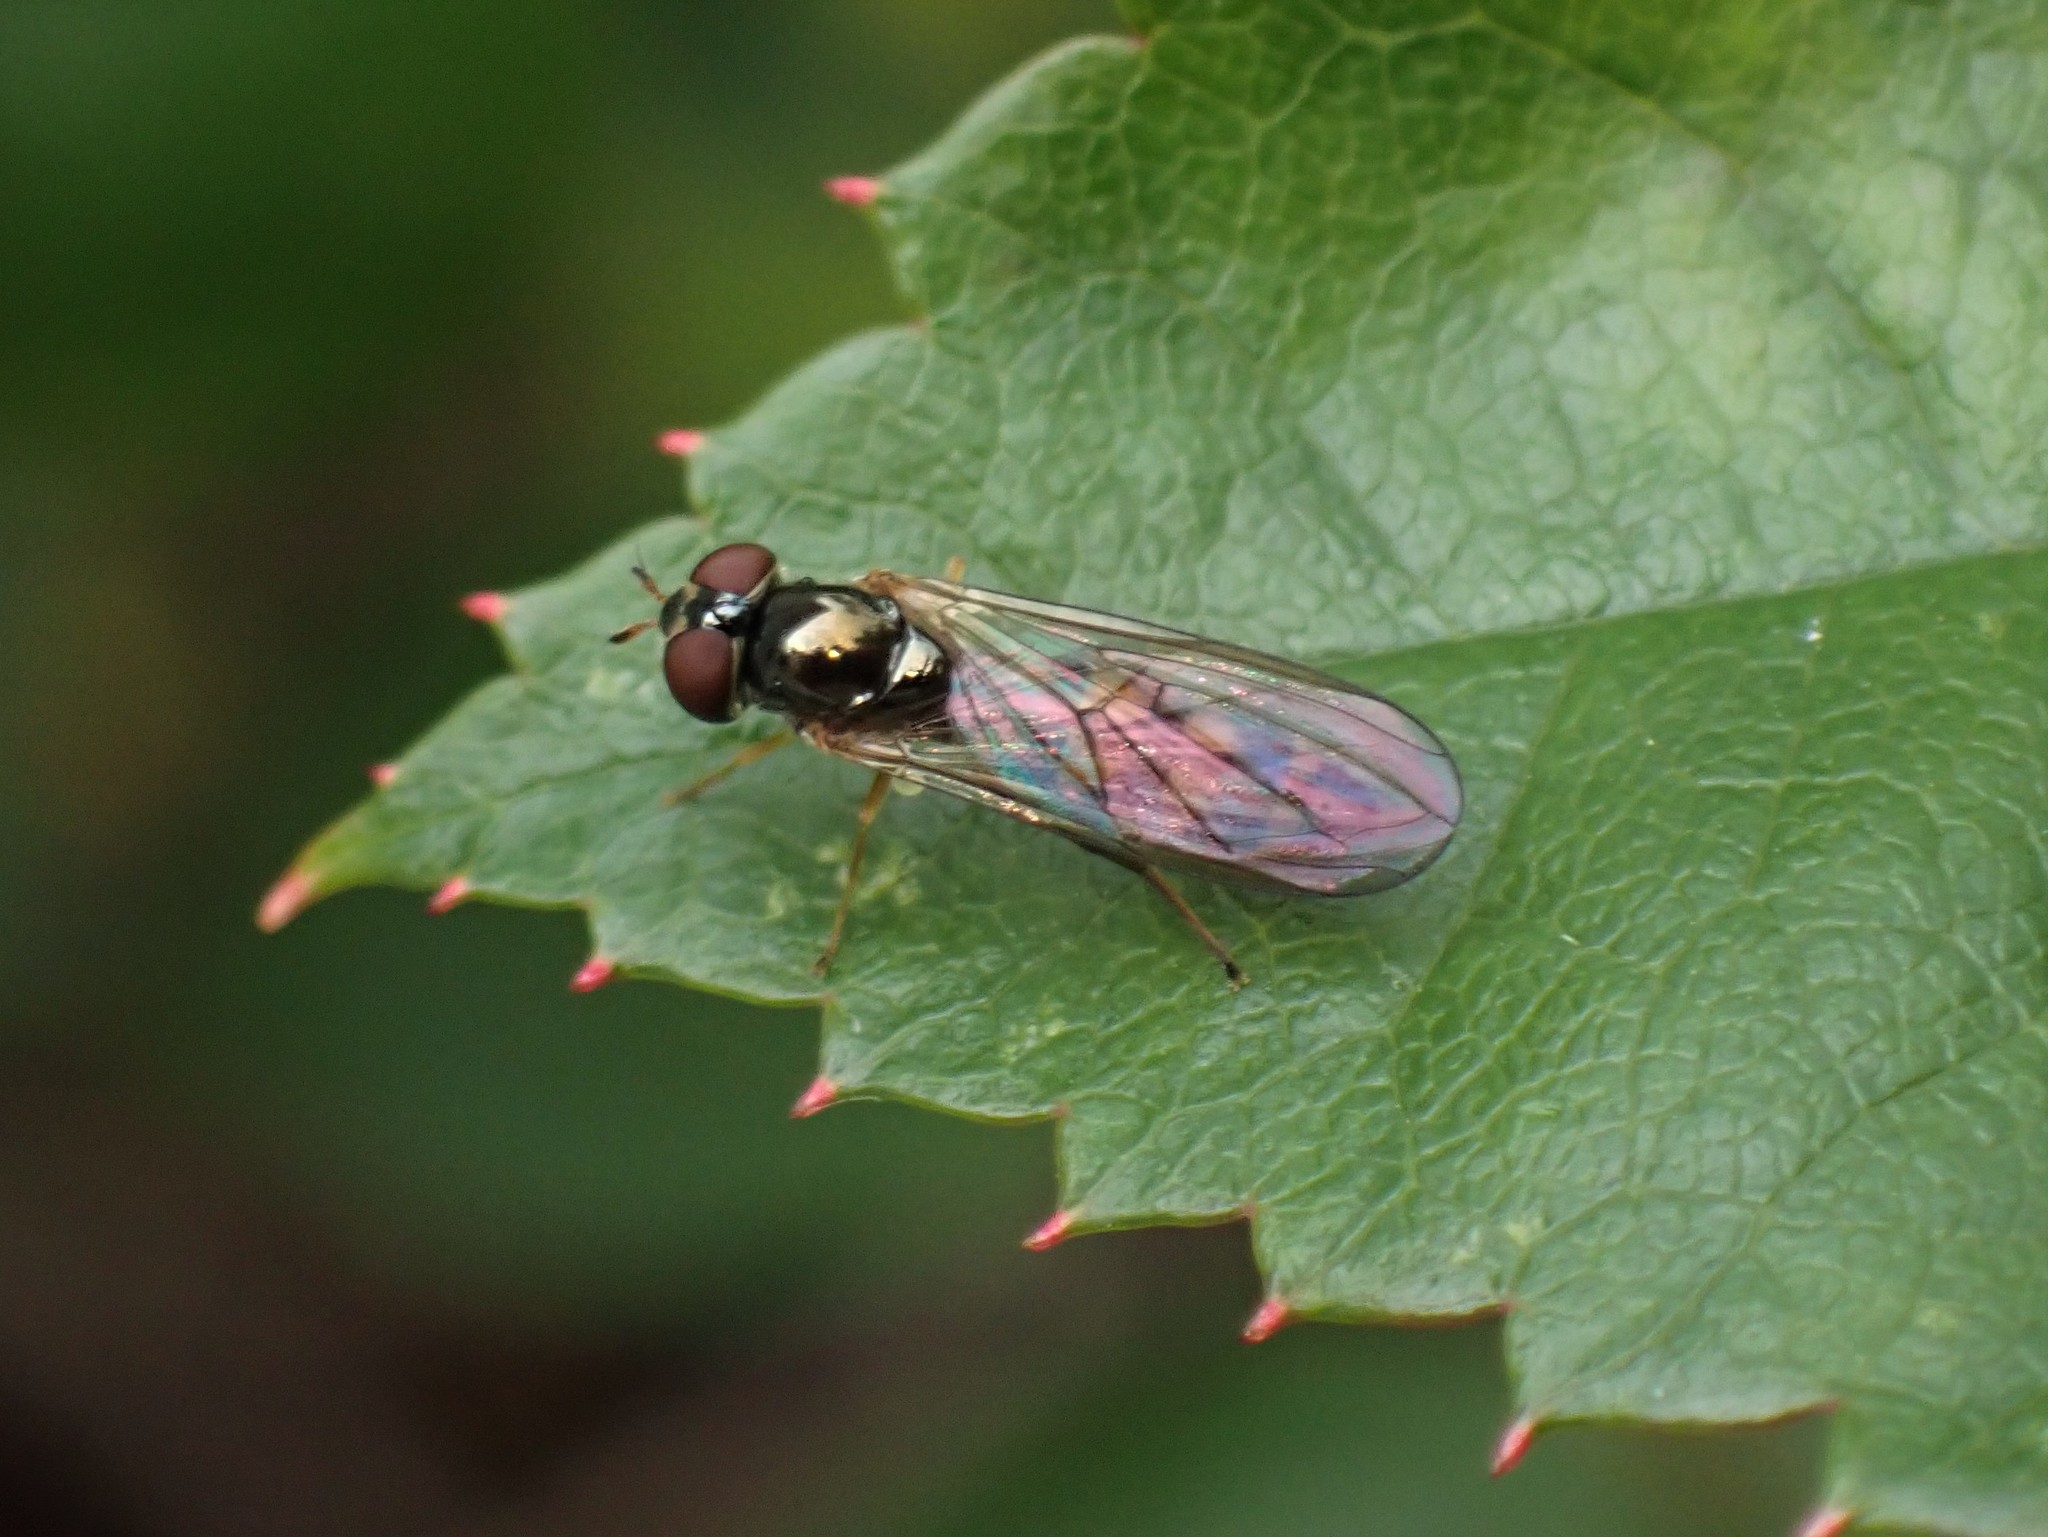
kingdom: Animalia
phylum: Arthropoda
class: Insecta
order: Diptera
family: Syrphidae
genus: Melanostoma
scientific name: Melanostoma mellina
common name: Hover fly
